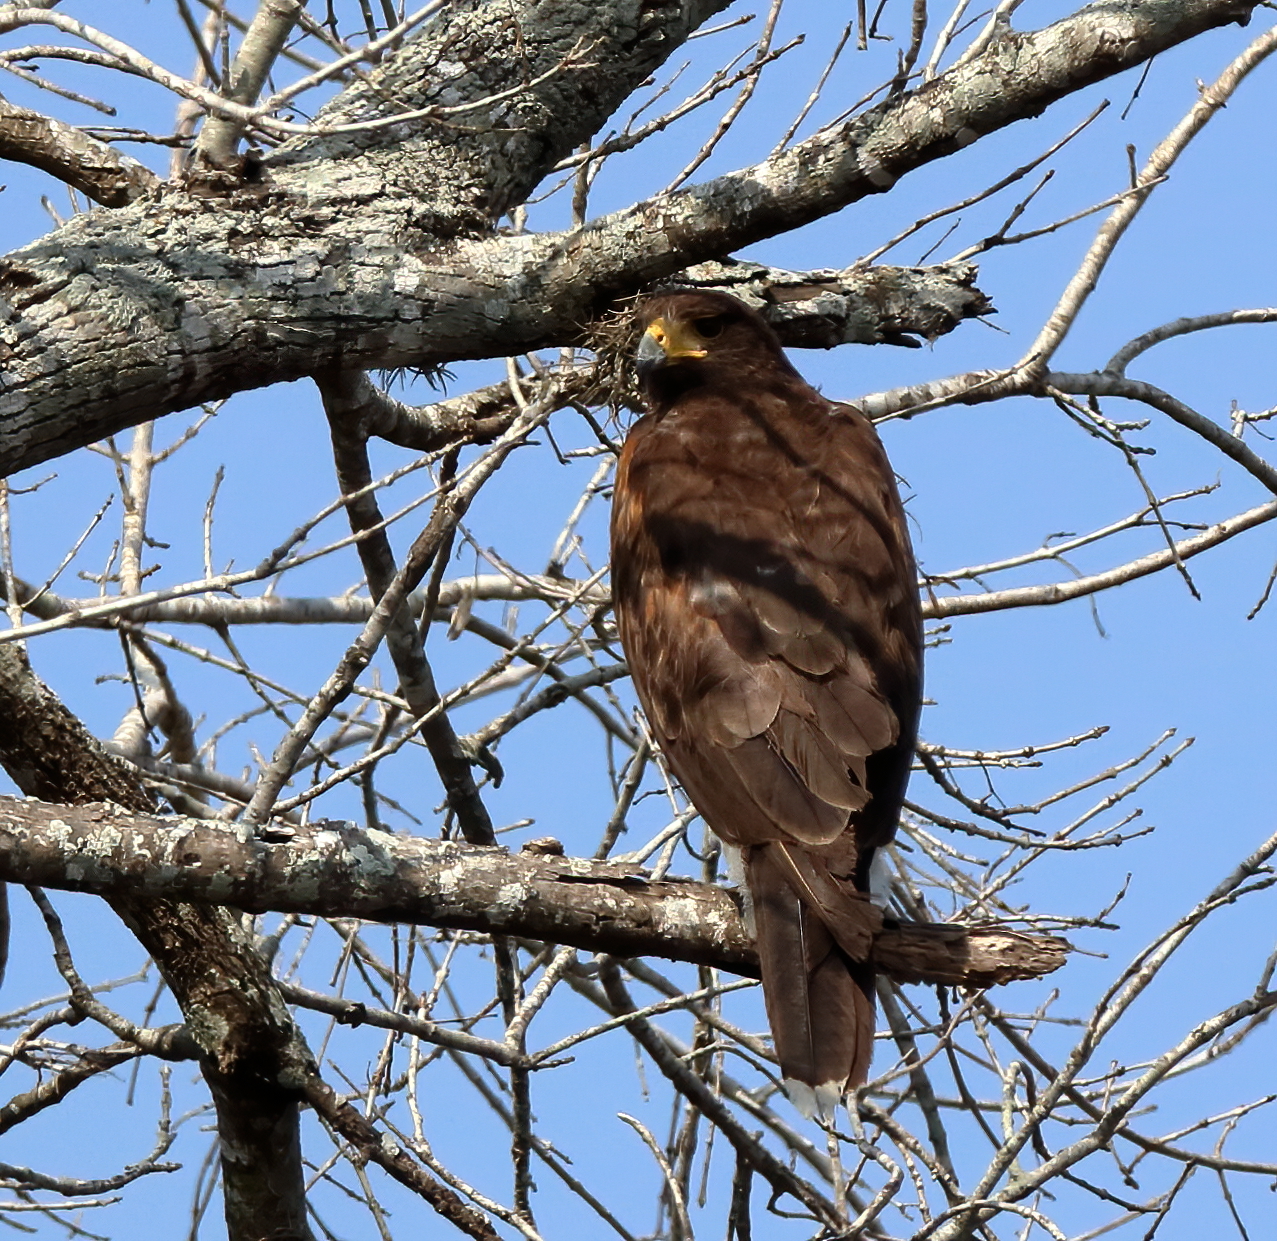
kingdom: Animalia
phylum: Chordata
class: Aves
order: Accipitriformes
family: Accipitridae
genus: Parabuteo
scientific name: Parabuteo unicinctus
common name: Harris's hawk
